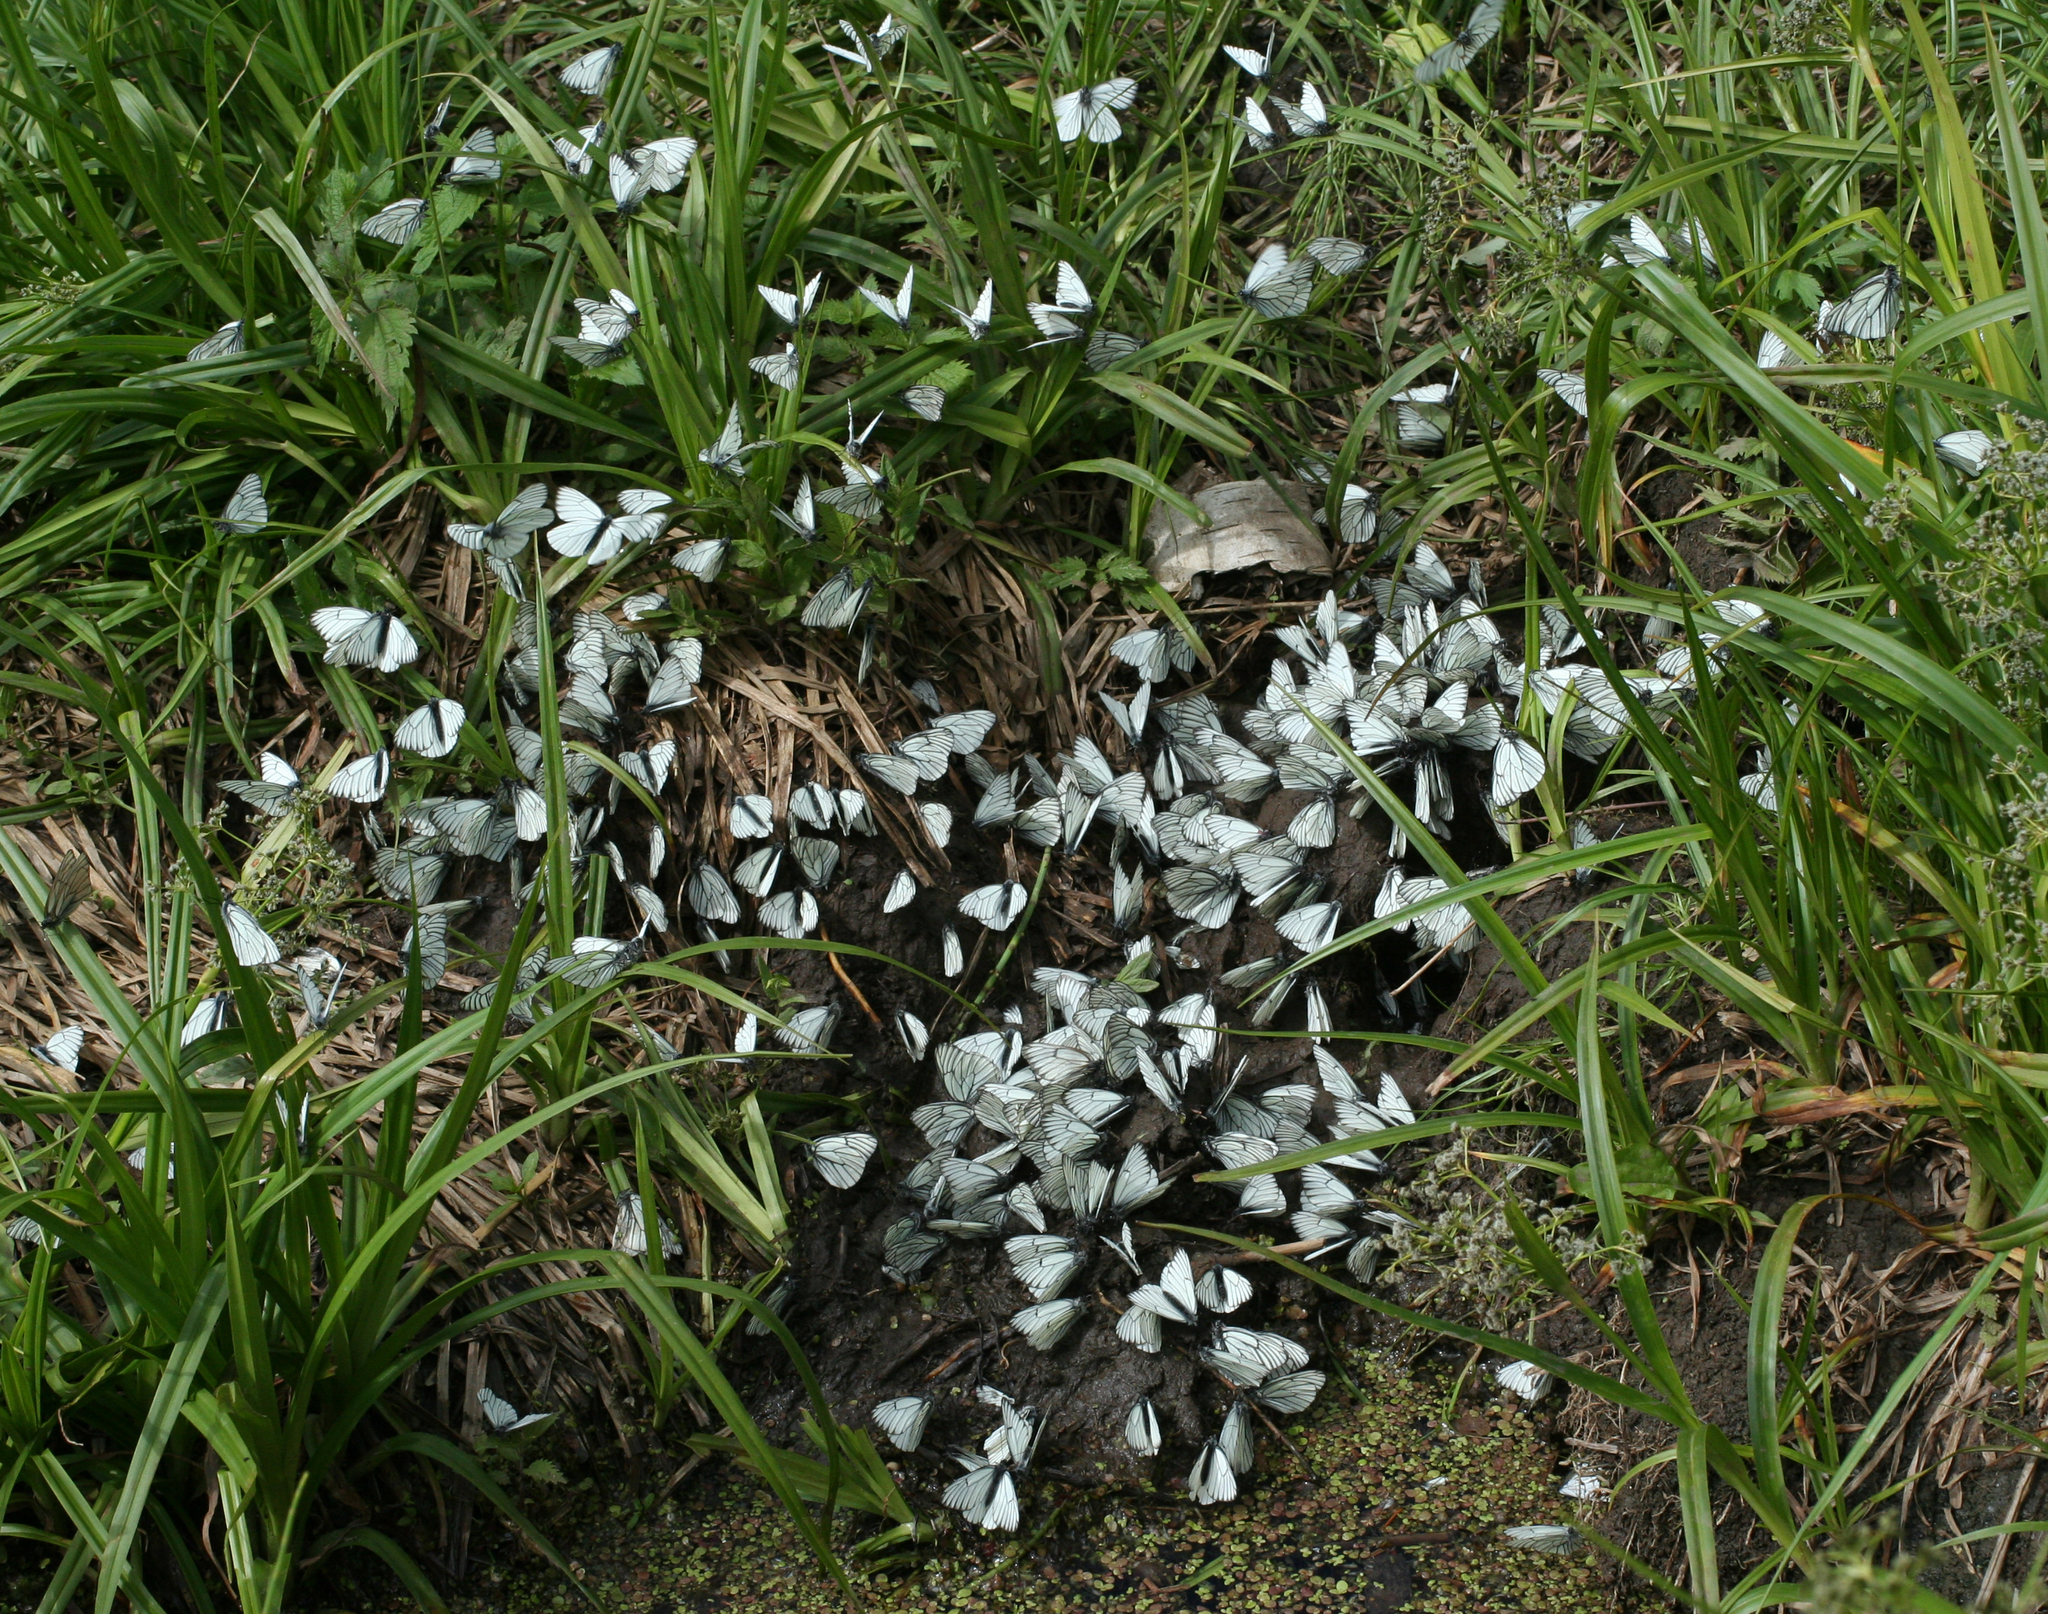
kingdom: Animalia
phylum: Arthropoda
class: Insecta
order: Lepidoptera
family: Pieridae
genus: Aporia
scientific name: Aporia crataegi
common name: Black-veined white
